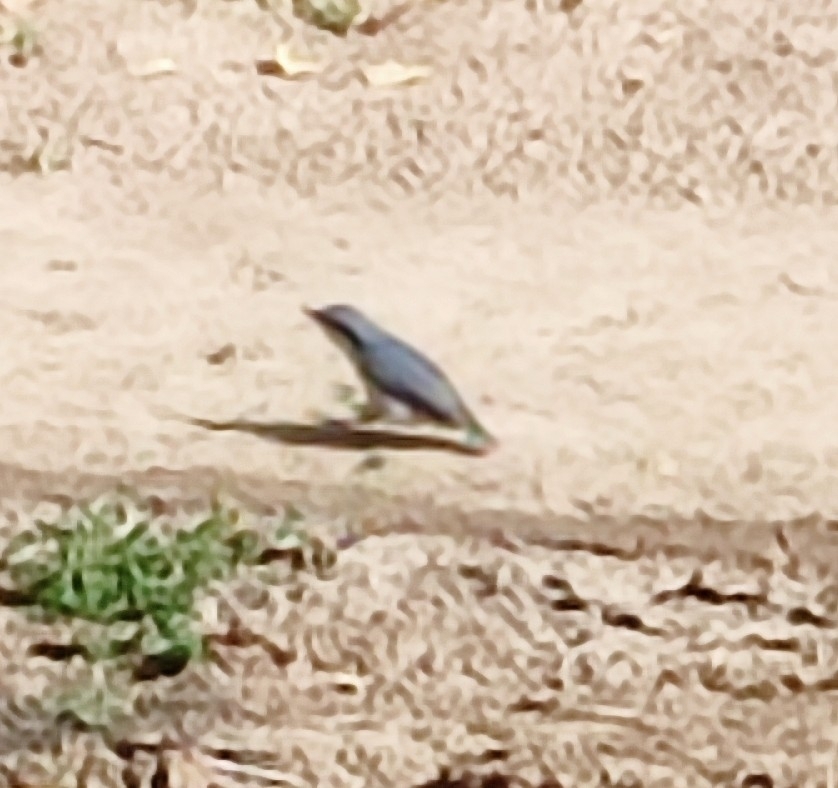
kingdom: Animalia
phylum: Chordata
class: Aves
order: Passeriformes
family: Sittidae
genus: Sitta
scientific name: Sitta europaea
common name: Eurasian nuthatch
